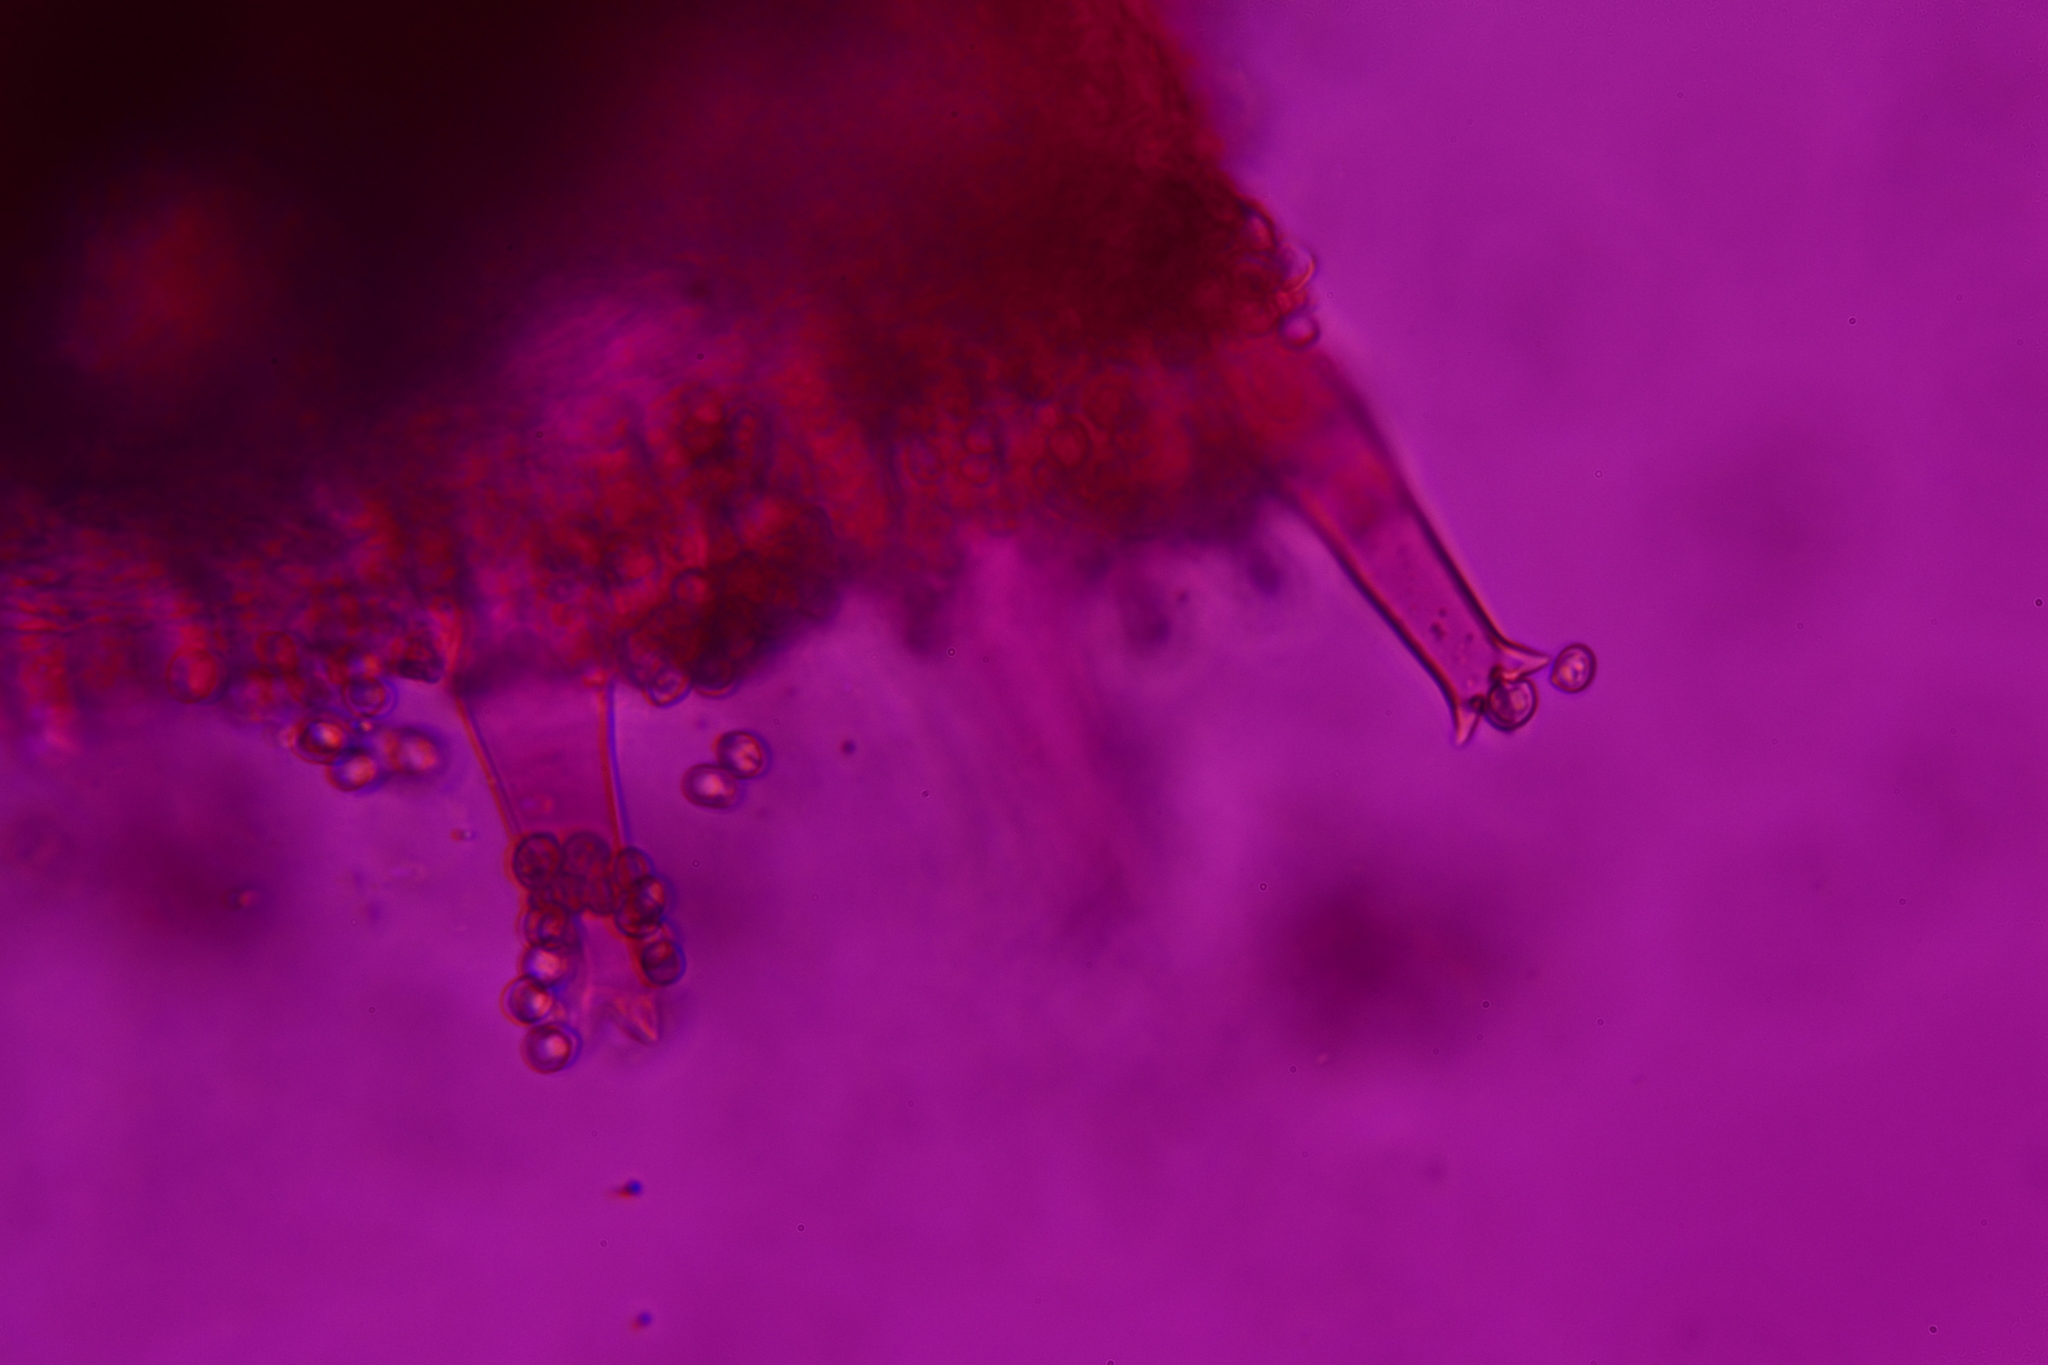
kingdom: Fungi
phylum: Basidiomycota
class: Agaricomycetes
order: Agaricales
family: Pluteaceae
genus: Pluteus
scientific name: Pluteus cervinus
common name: Deer shield
